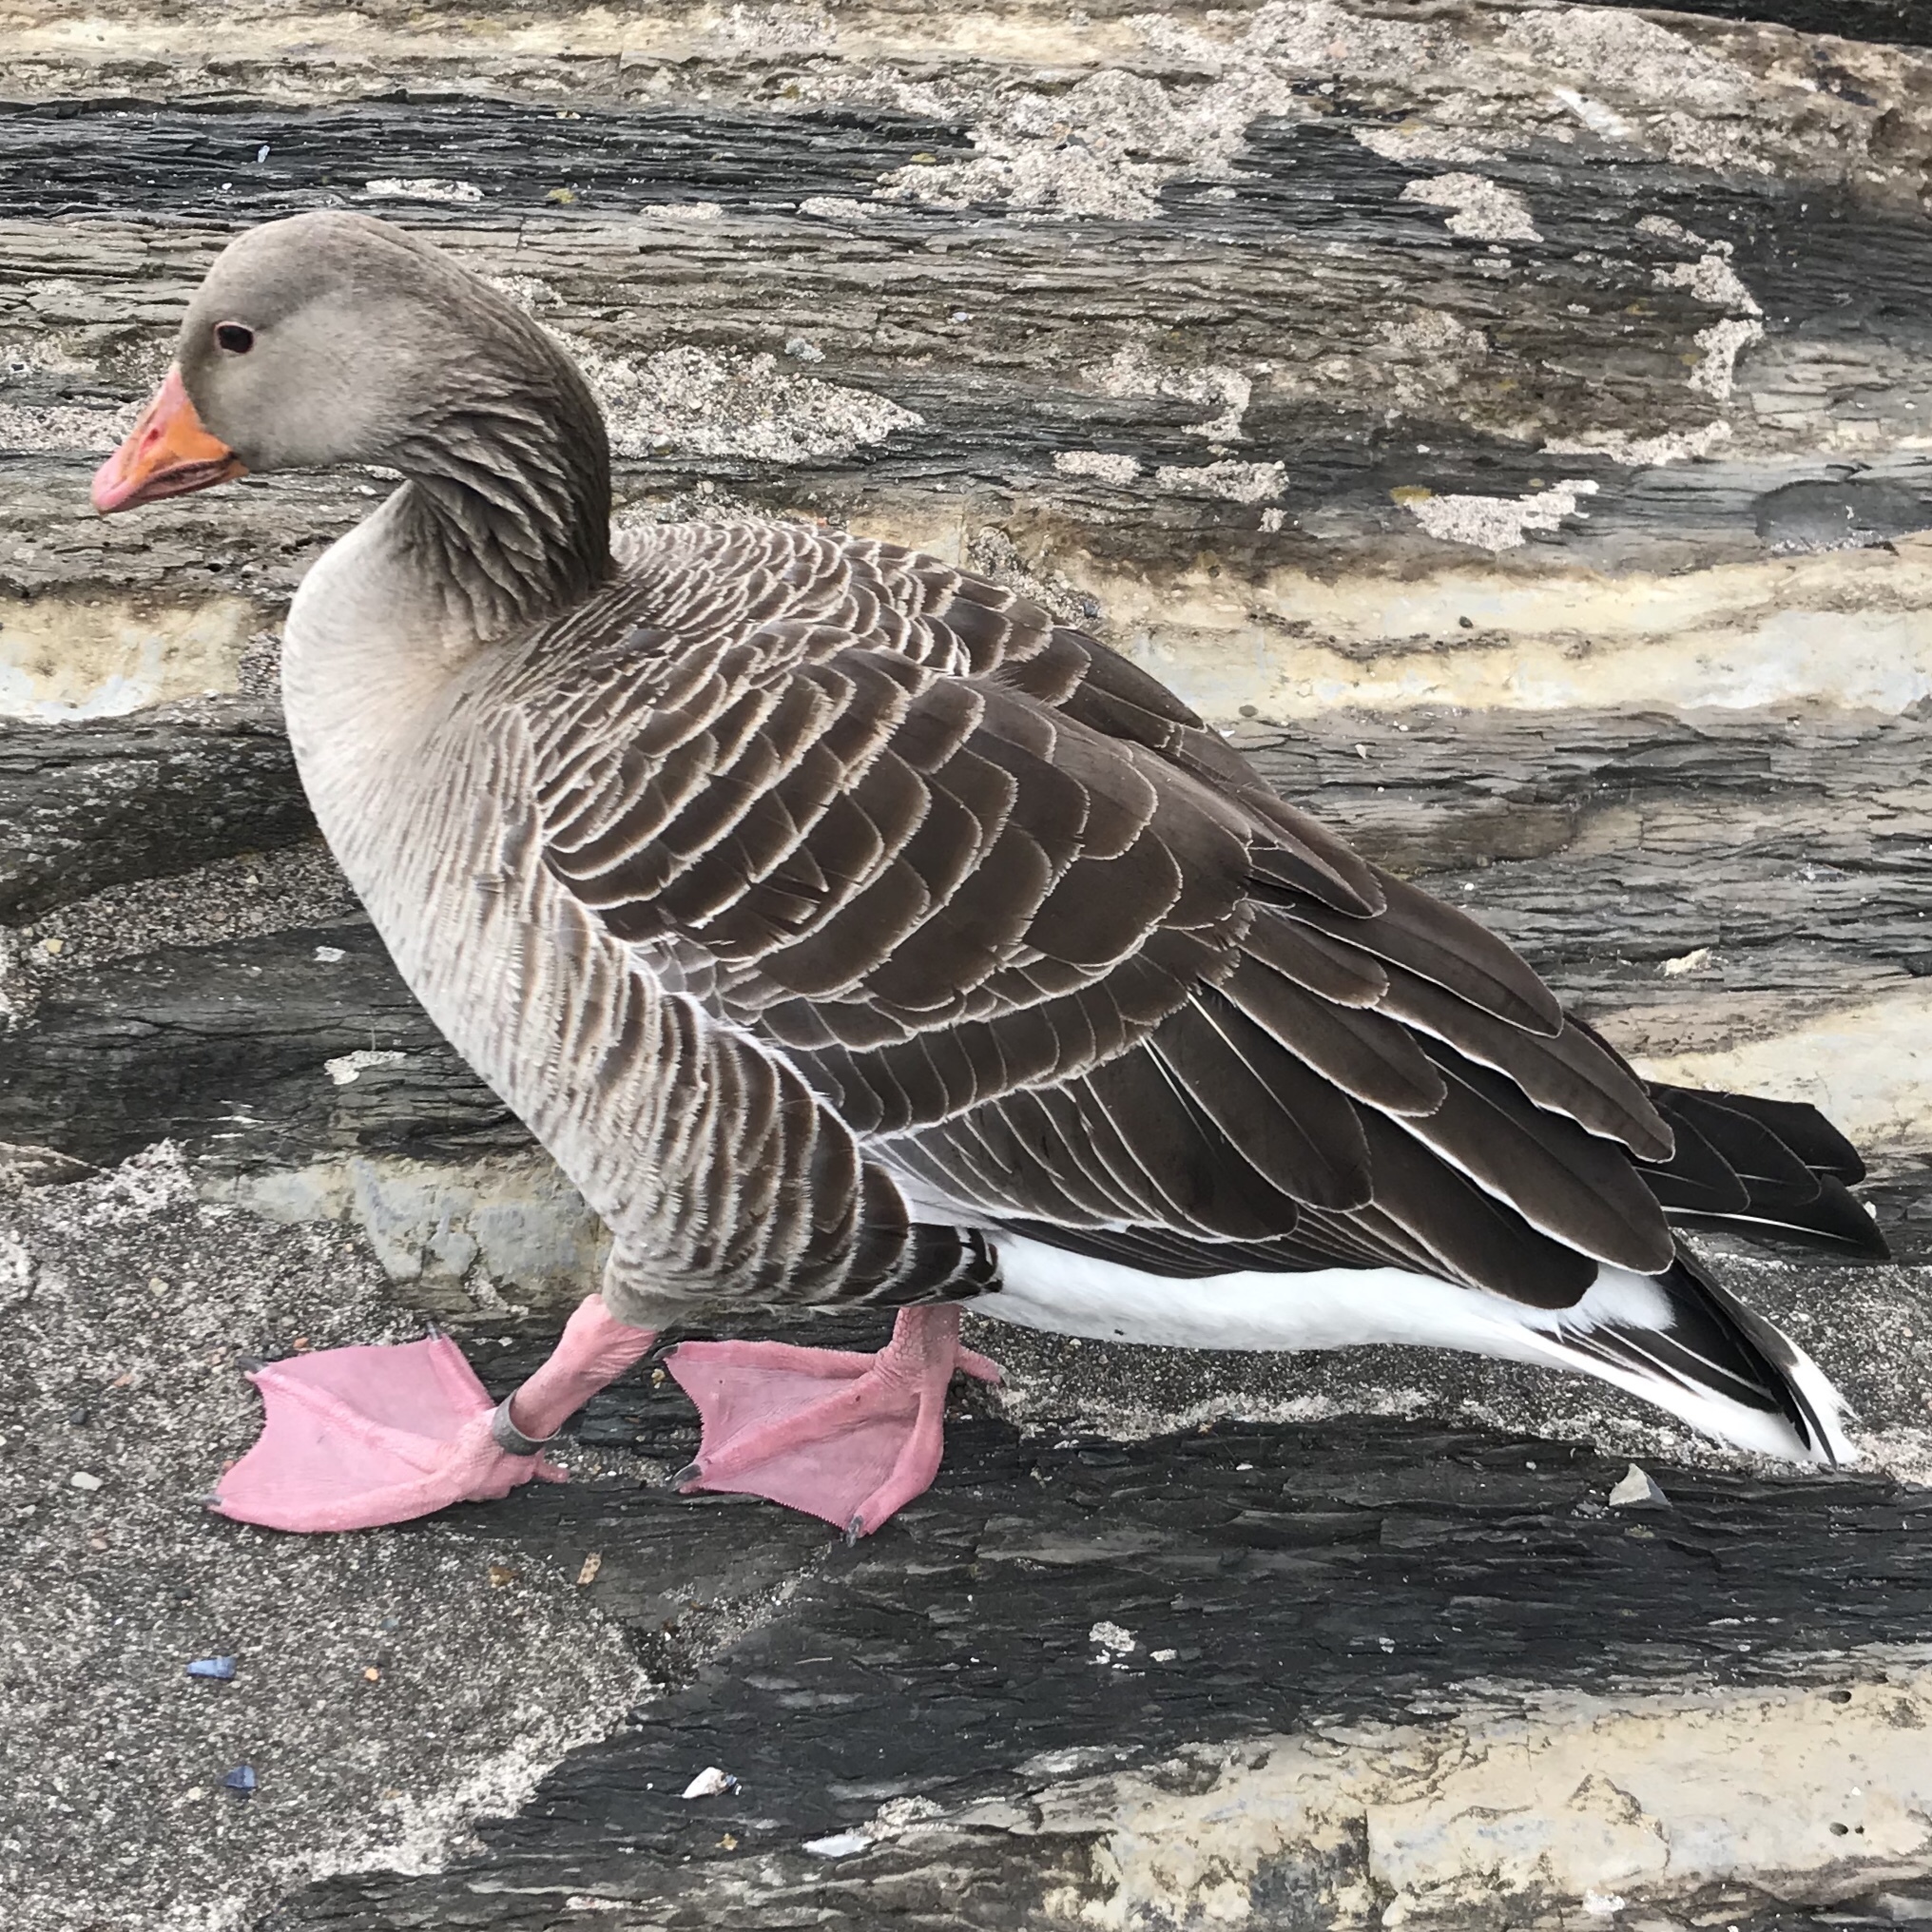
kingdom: Animalia
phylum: Chordata
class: Aves
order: Anseriformes
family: Anatidae
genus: Anser
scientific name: Anser anser
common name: Greylag goose
